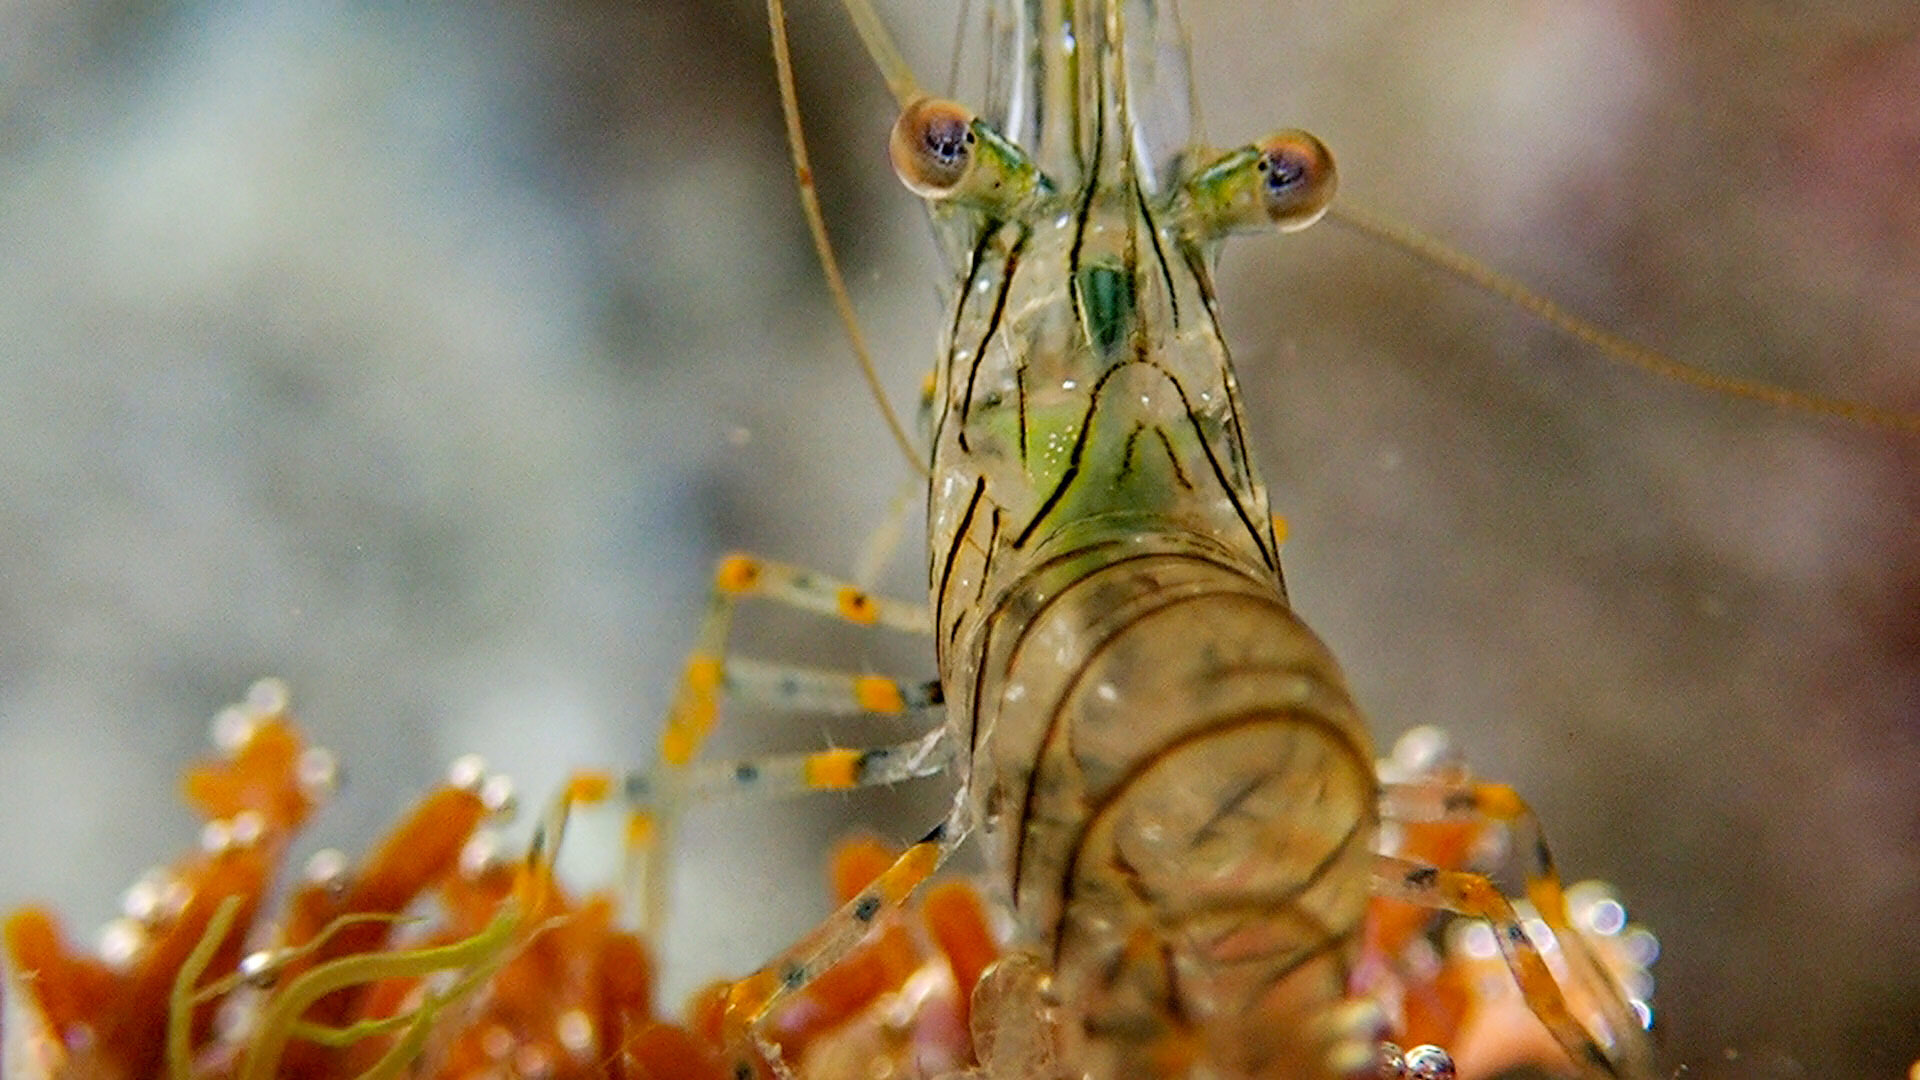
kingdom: Animalia
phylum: Arthropoda
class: Malacostraca
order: Decapoda
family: Palaemonidae
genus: Palaemon
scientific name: Palaemon elegans
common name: Grass prawm
